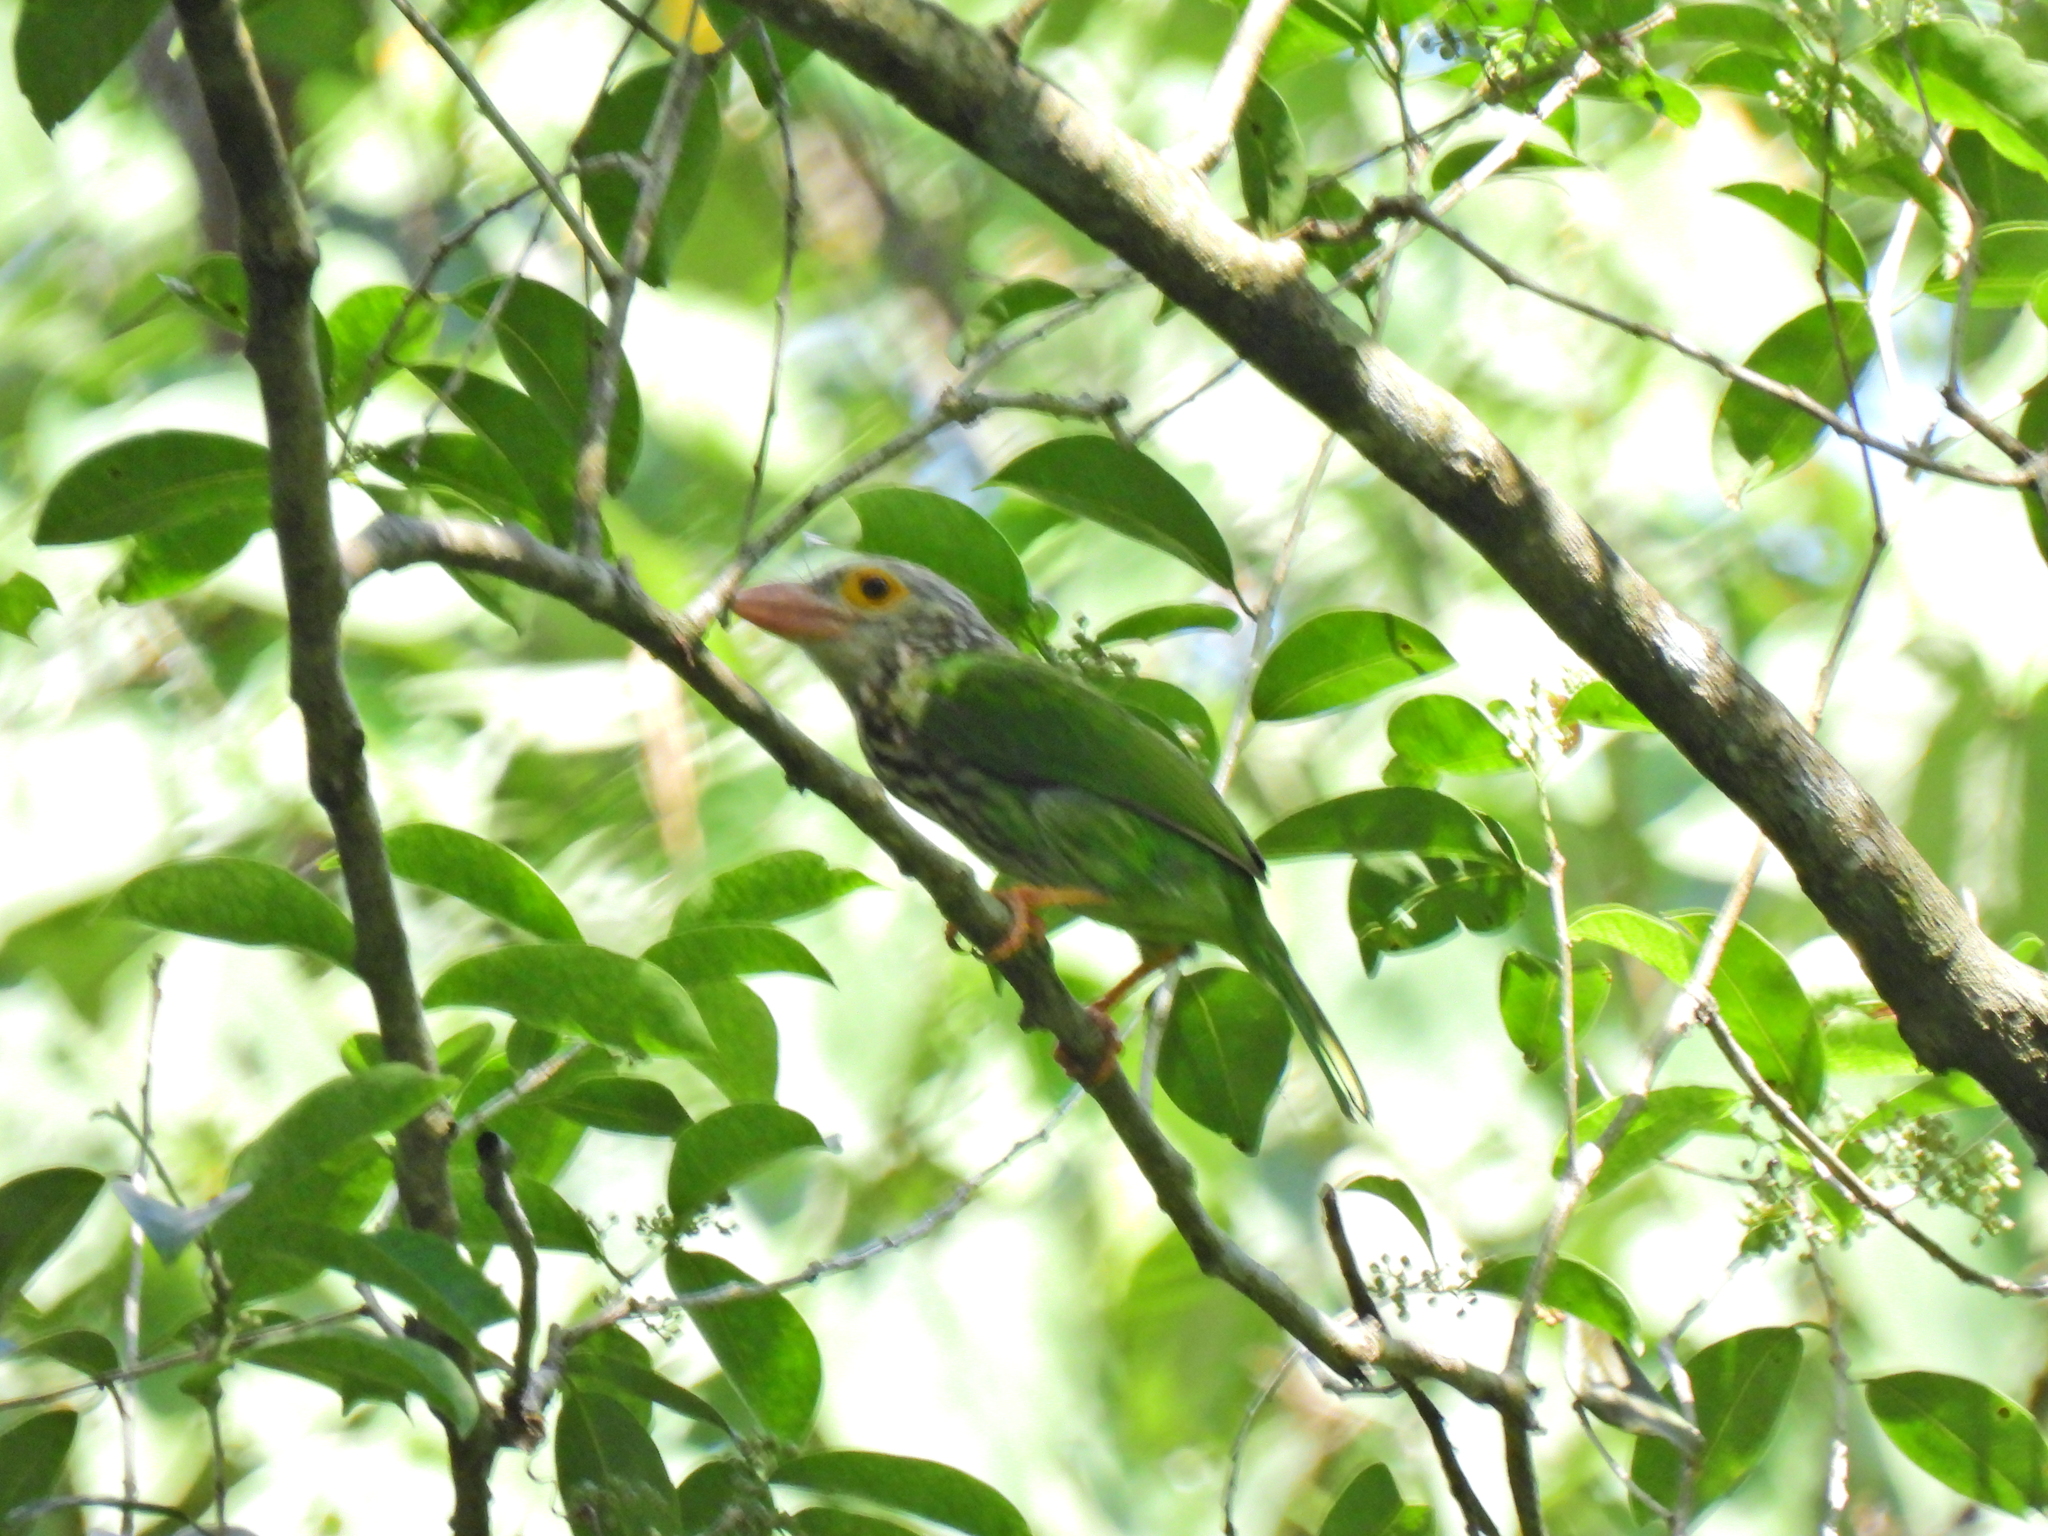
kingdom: Animalia
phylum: Chordata
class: Aves
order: Piciformes
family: Megalaimidae
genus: Psilopogon
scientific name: Psilopogon lineatus
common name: Lineated barbet
